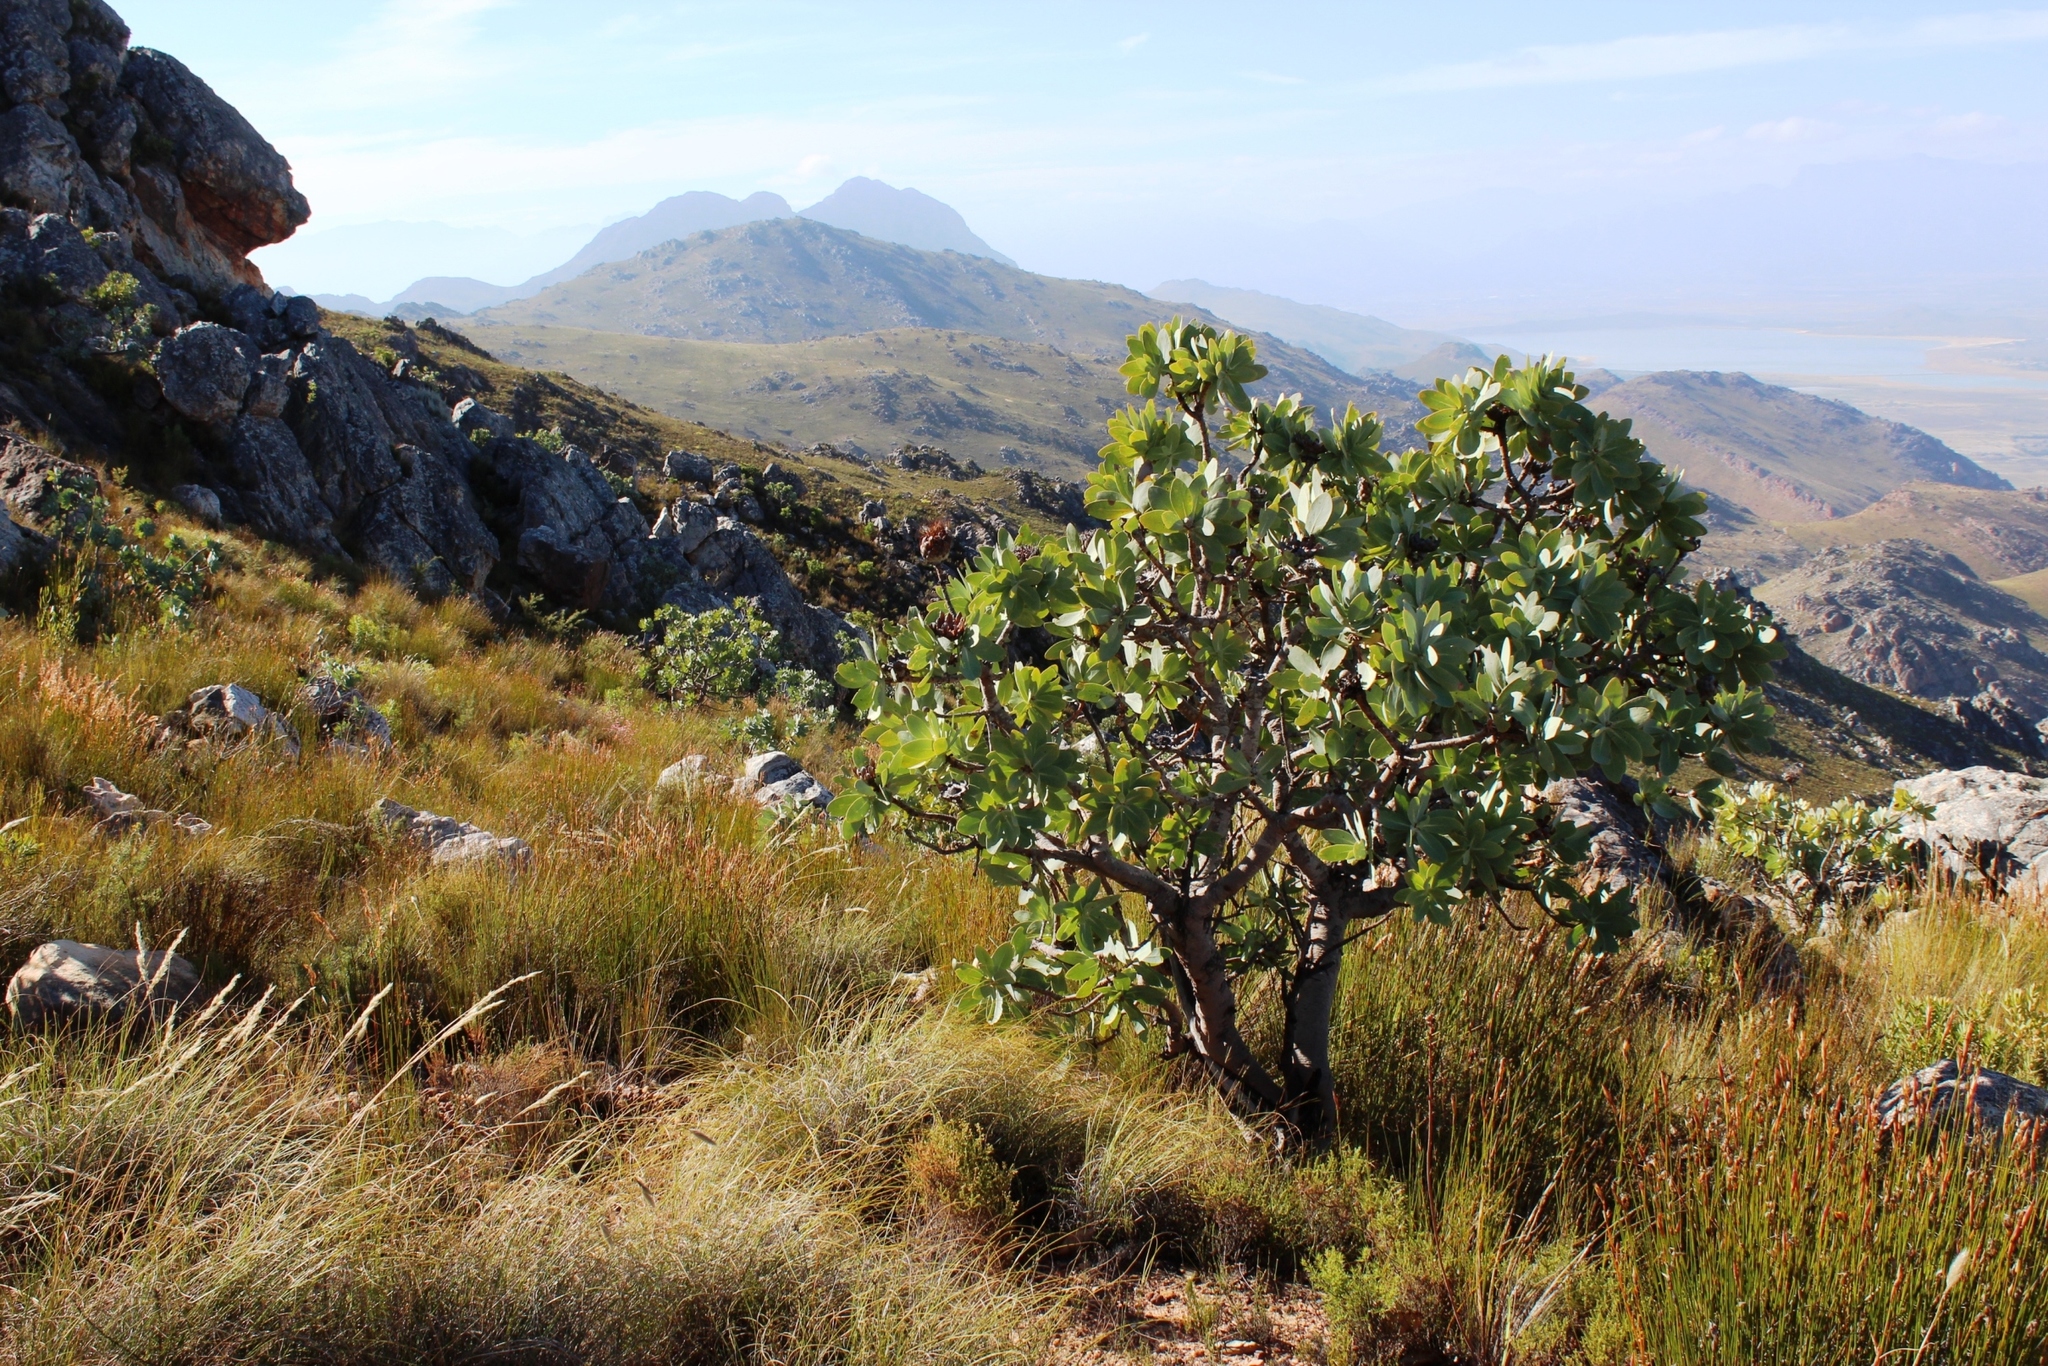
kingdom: Plantae
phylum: Tracheophyta
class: Magnoliopsida
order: Proteales
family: Proteaceae
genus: Protea
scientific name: Protea nitida
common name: Tree protea
